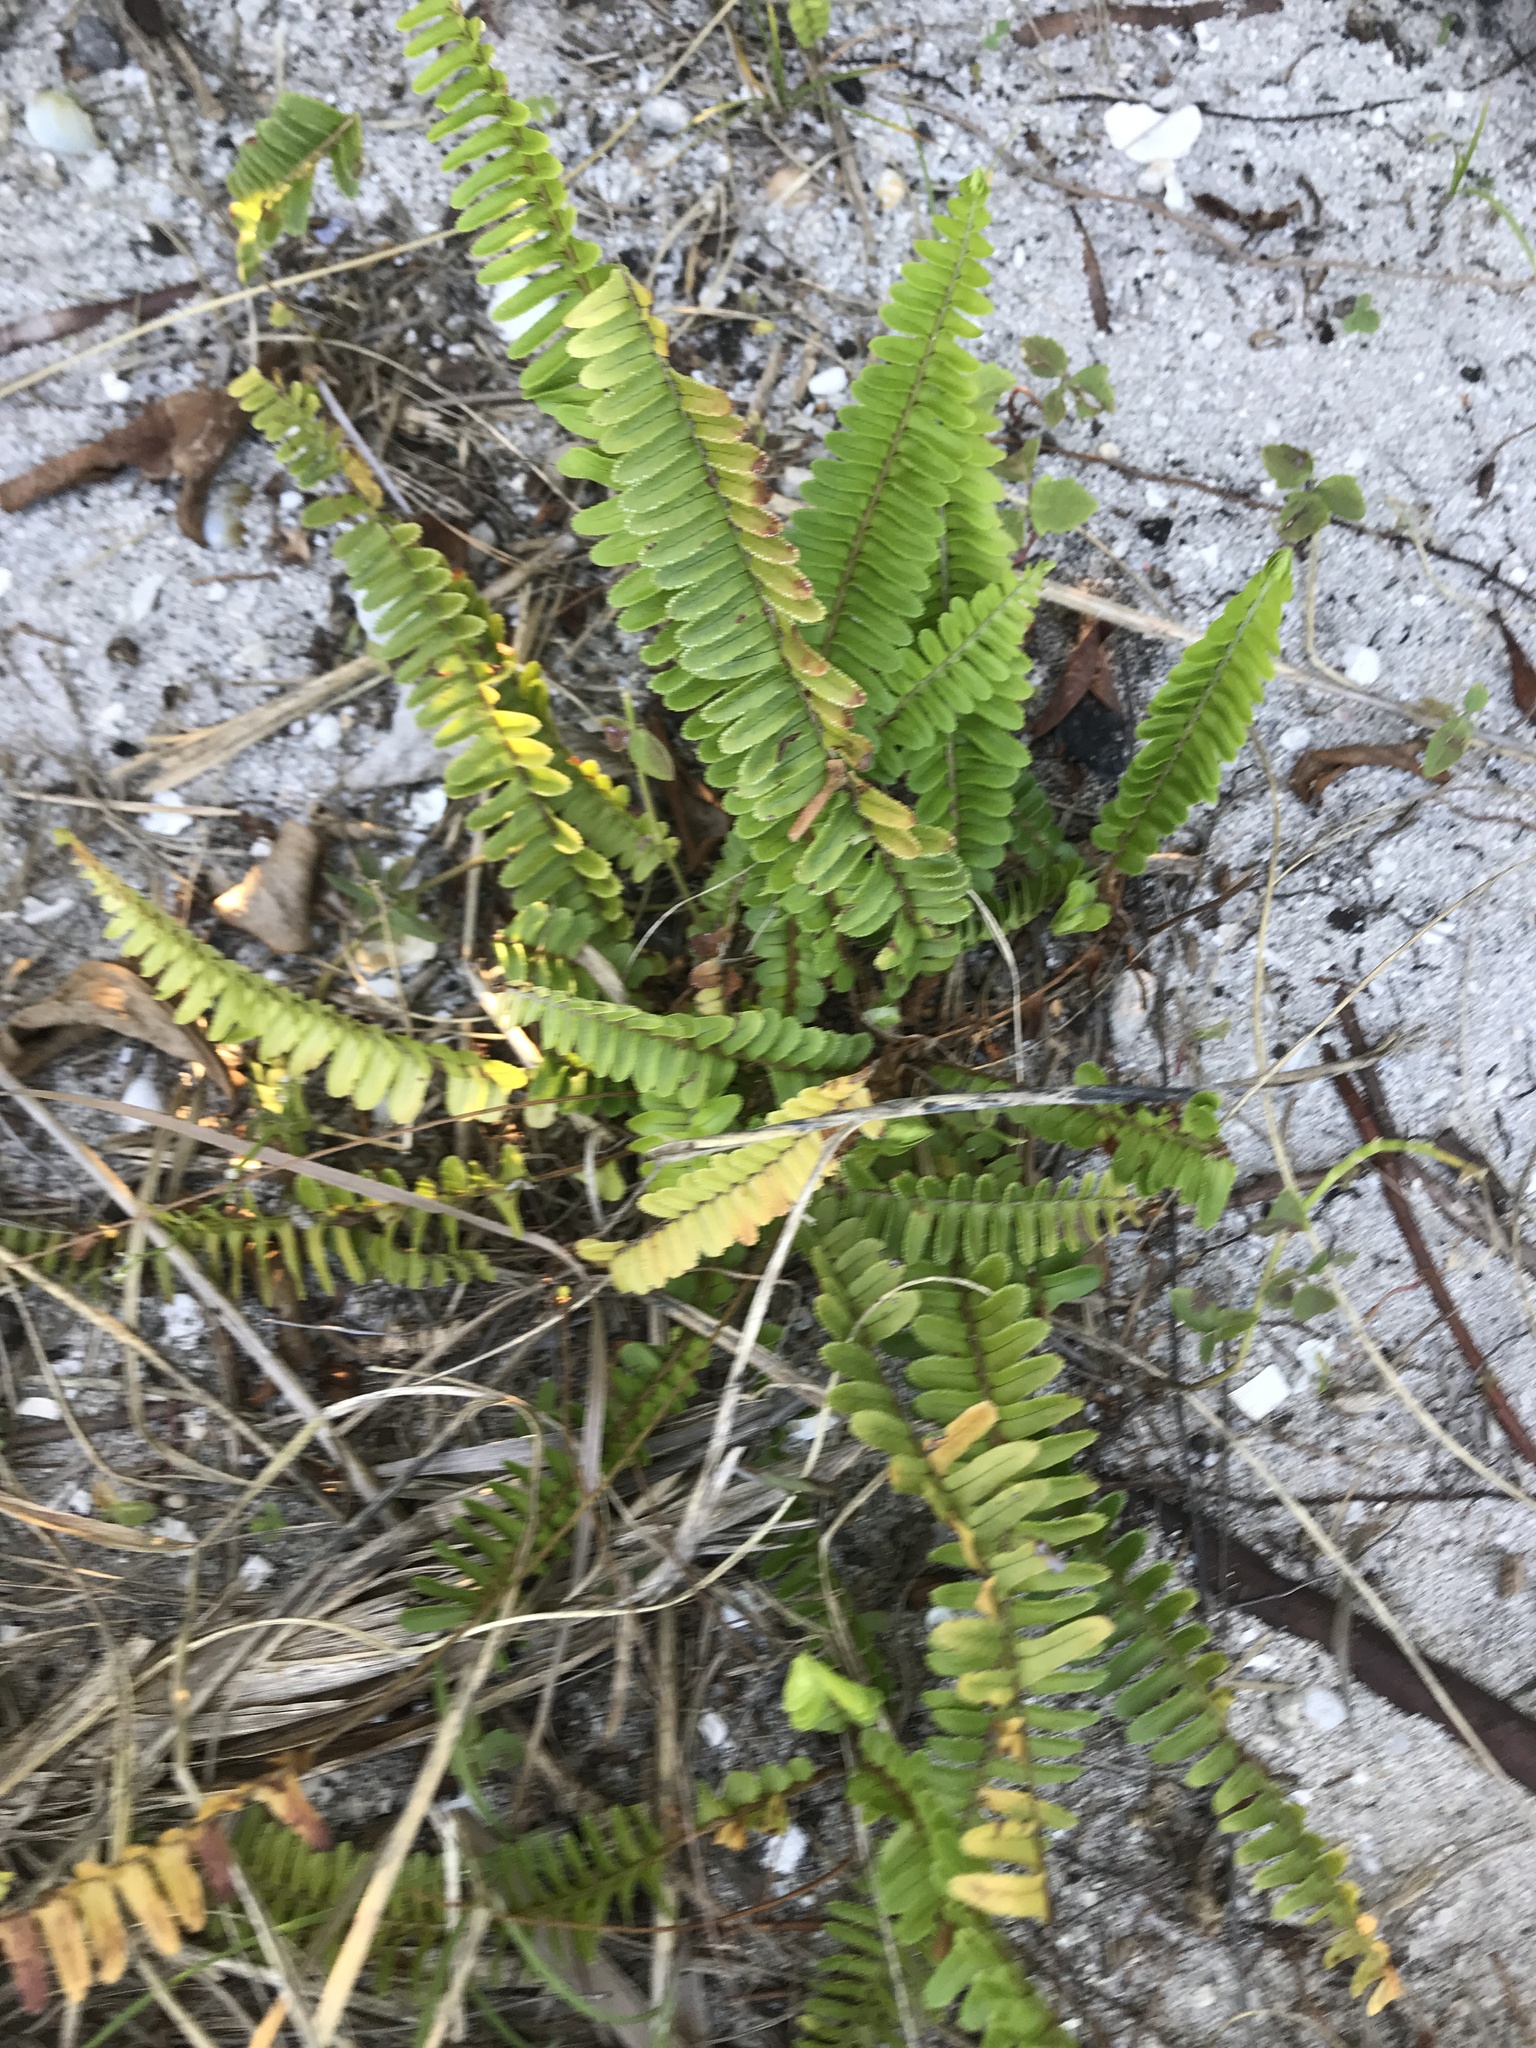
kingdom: Plantae
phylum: Tracheophyta
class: Polypodiopsida
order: Polypodiales
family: Nephrolepidaceae
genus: Nephrolepis
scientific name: Nephrolepis cordifolia
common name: Narrow swordfern
